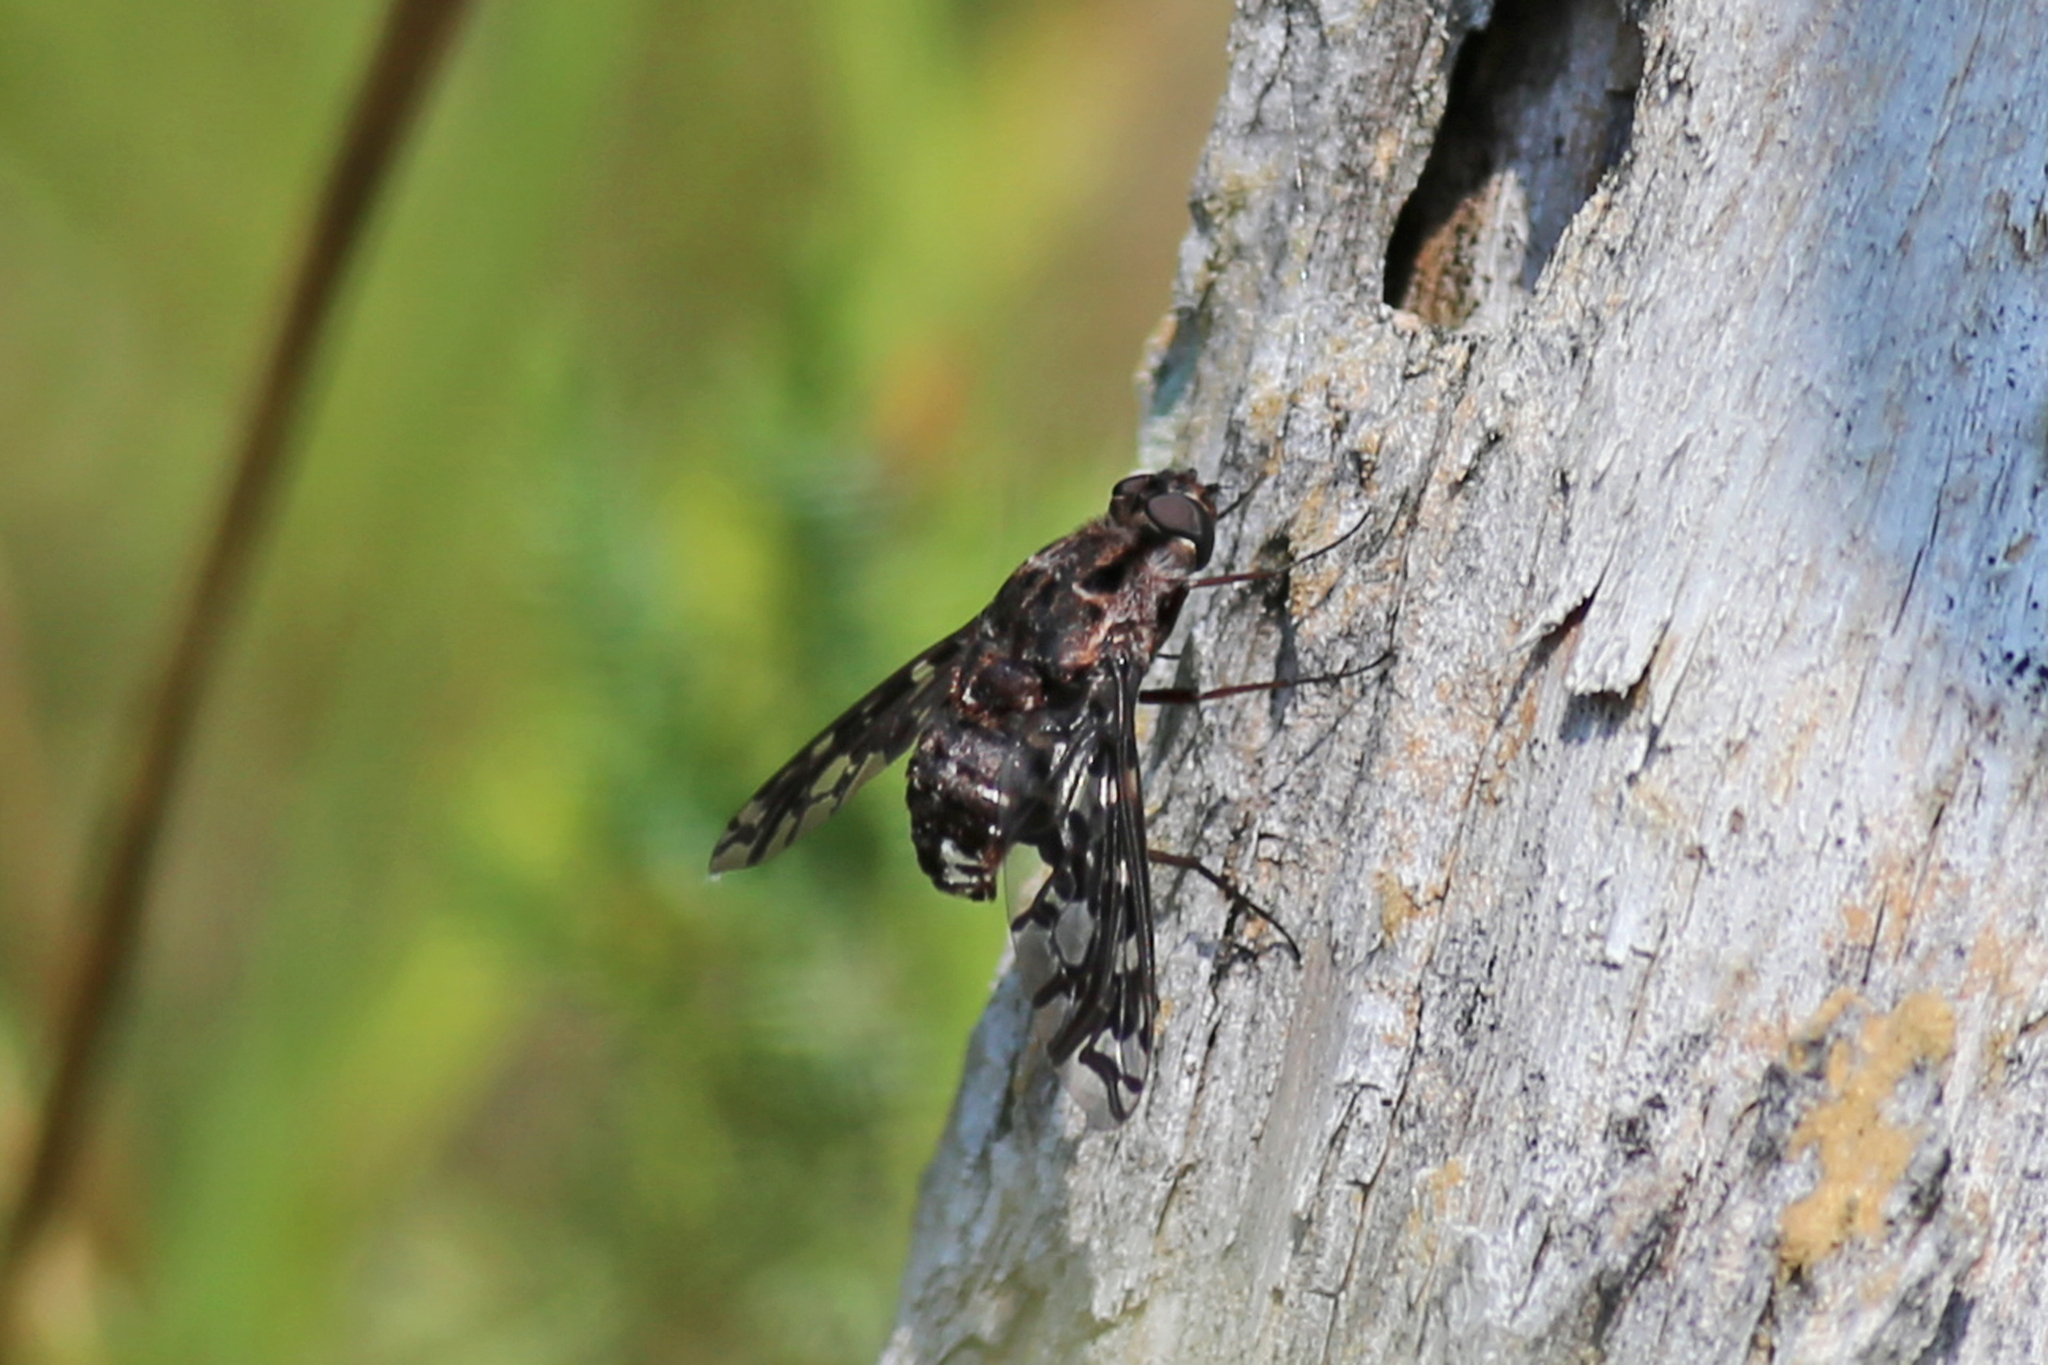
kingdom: Animalia
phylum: Arthropoda
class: Insecta
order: Diptera
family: Bombyliidae
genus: Xenox
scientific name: Xenox tigrinus
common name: Tiger bee fly
